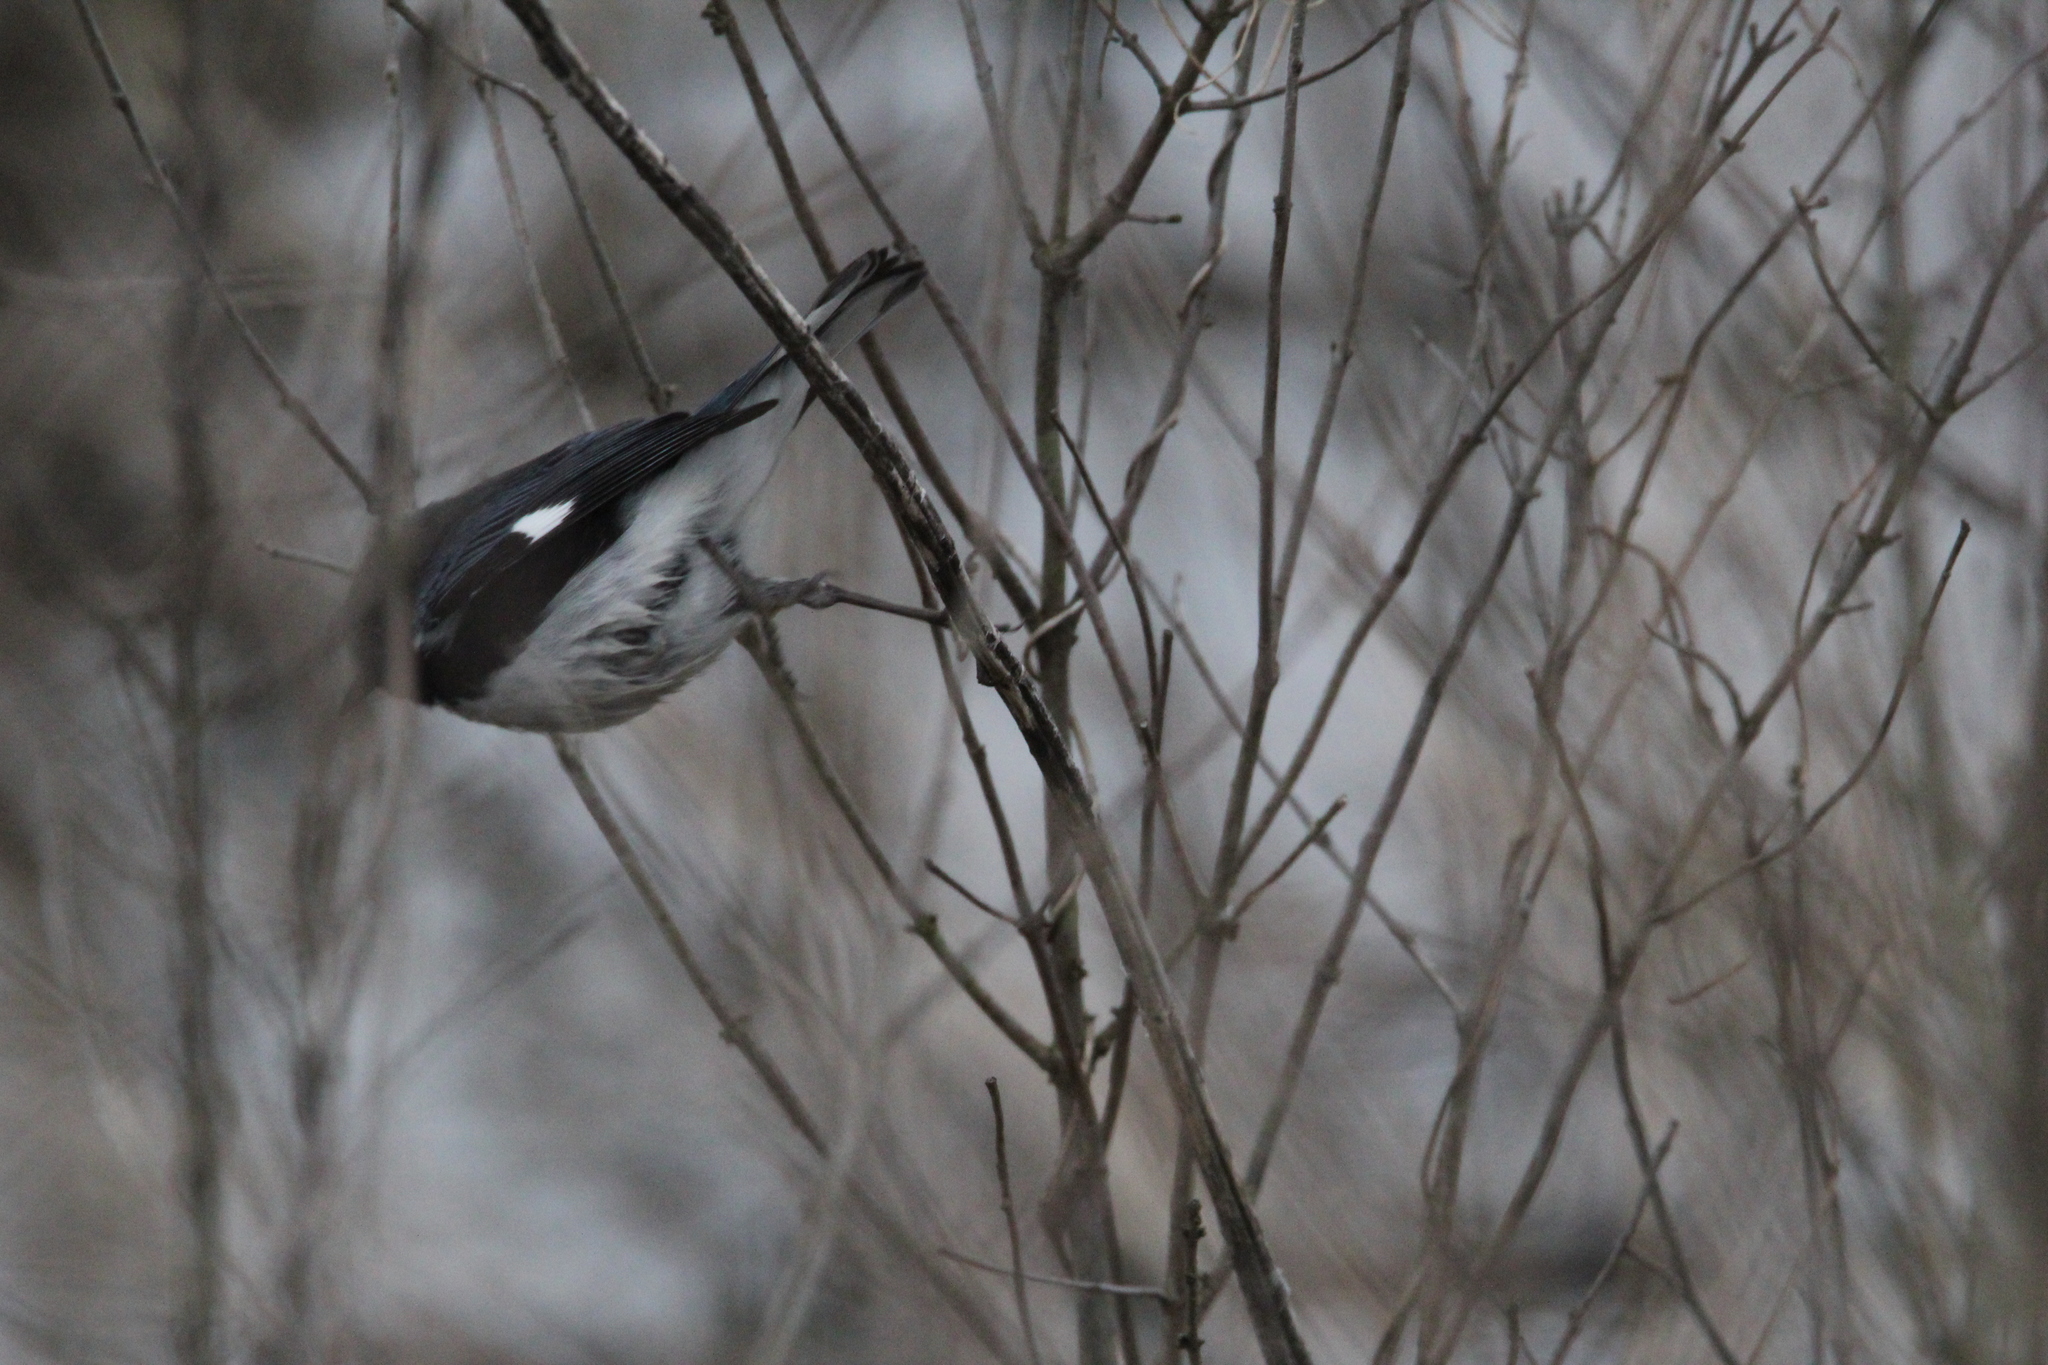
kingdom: Animalia
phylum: Chordata
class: Aves
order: Passeriformes
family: Parulidae
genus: Setophaga
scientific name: Setophaga caerulescens
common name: Black-throated blue warbler
